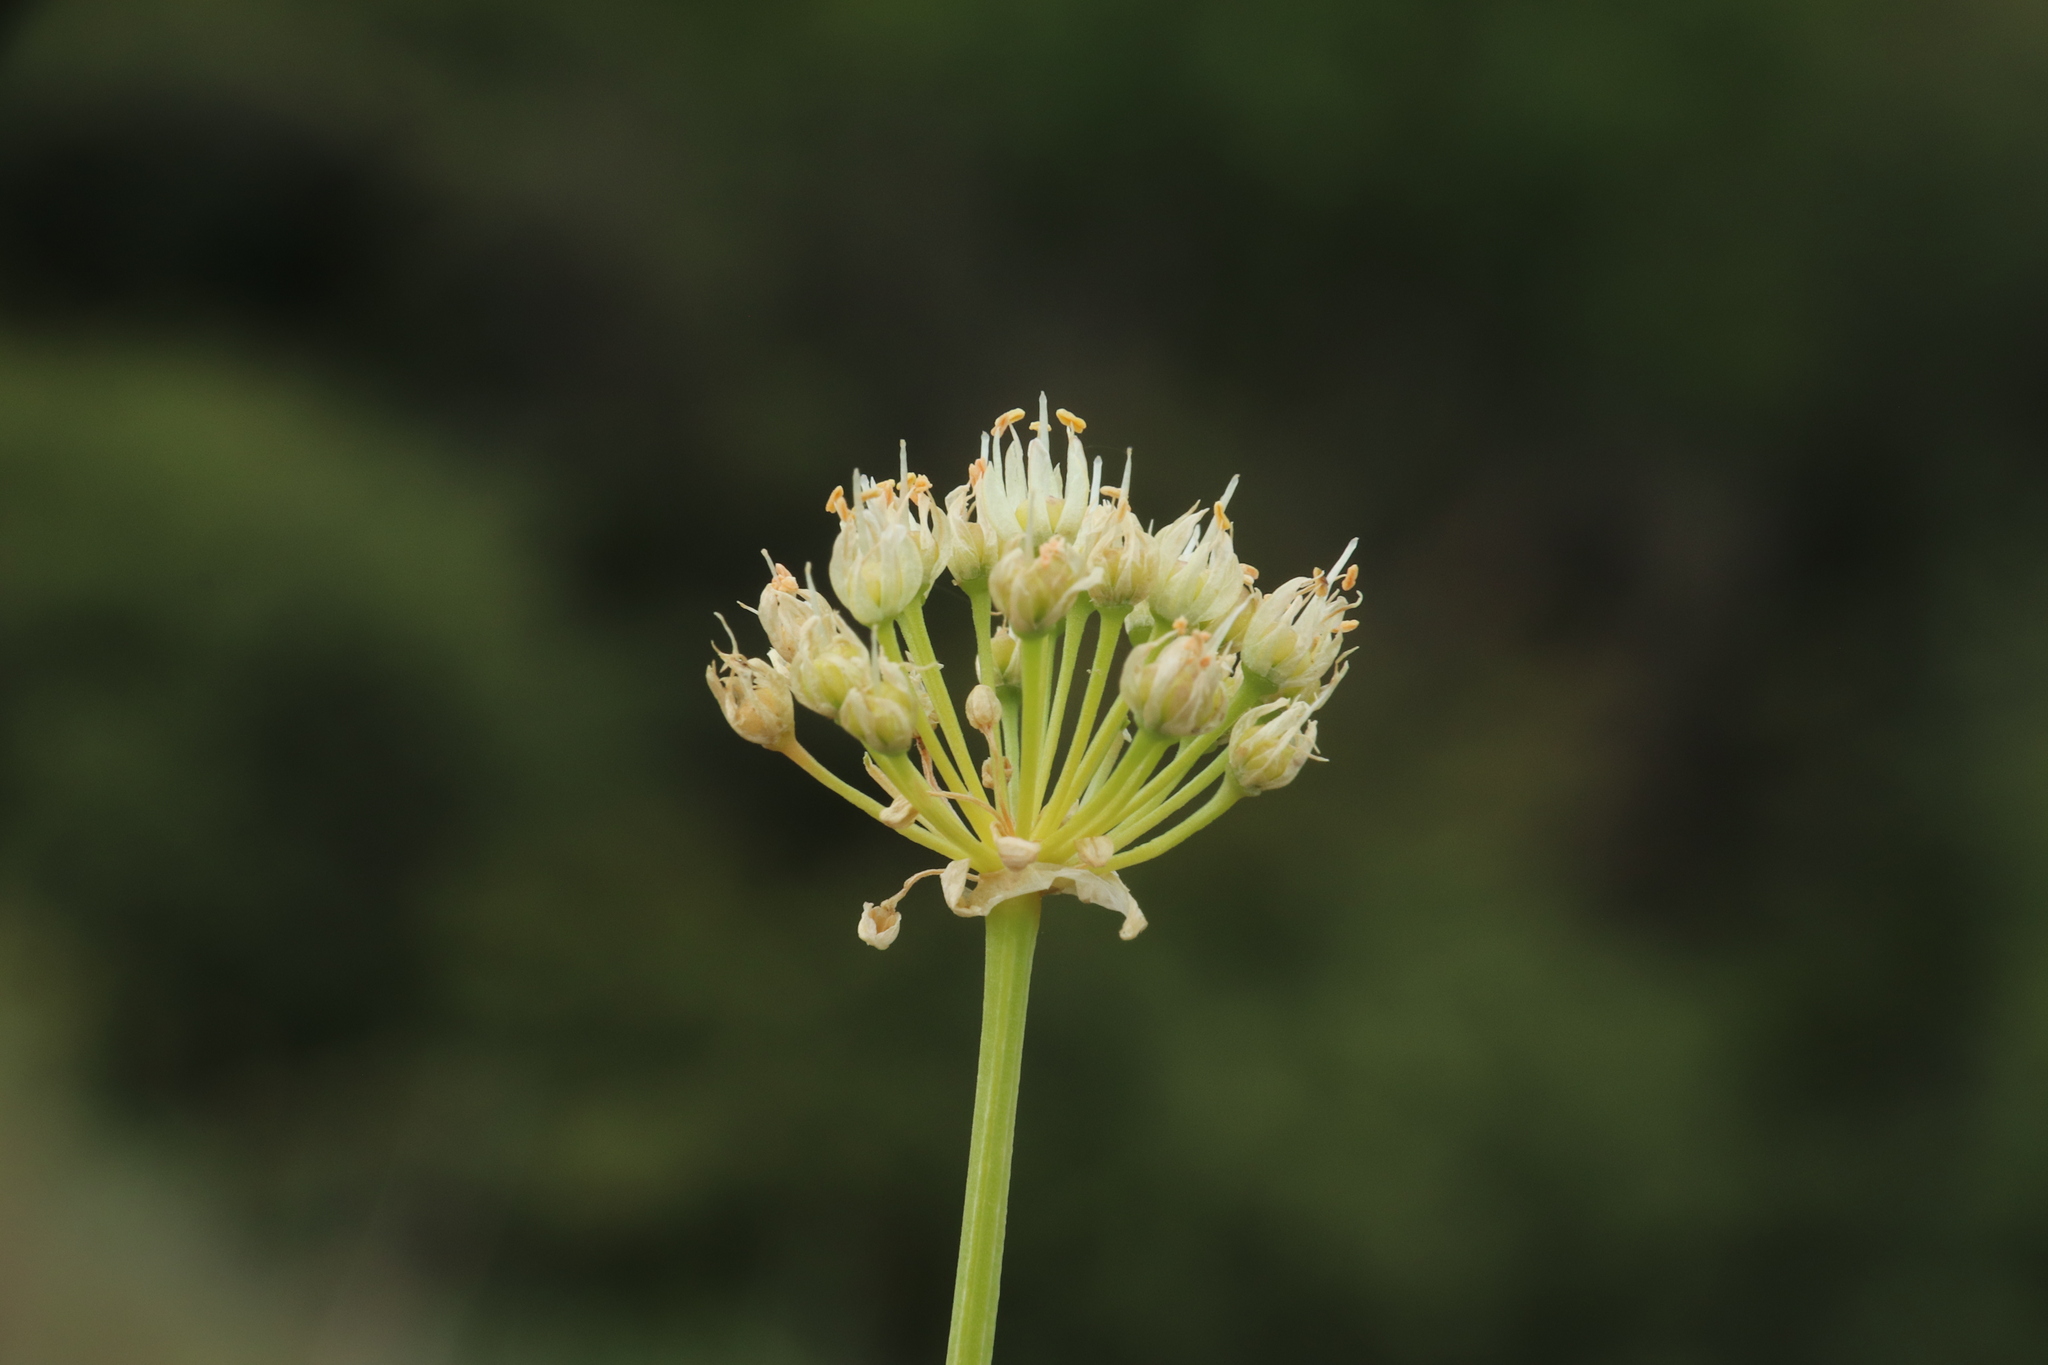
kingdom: Plantae
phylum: Tracheophyta
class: Liliopsida
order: Asparagales
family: Amaryllidaceae
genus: Allium
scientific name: Allium flavescens
